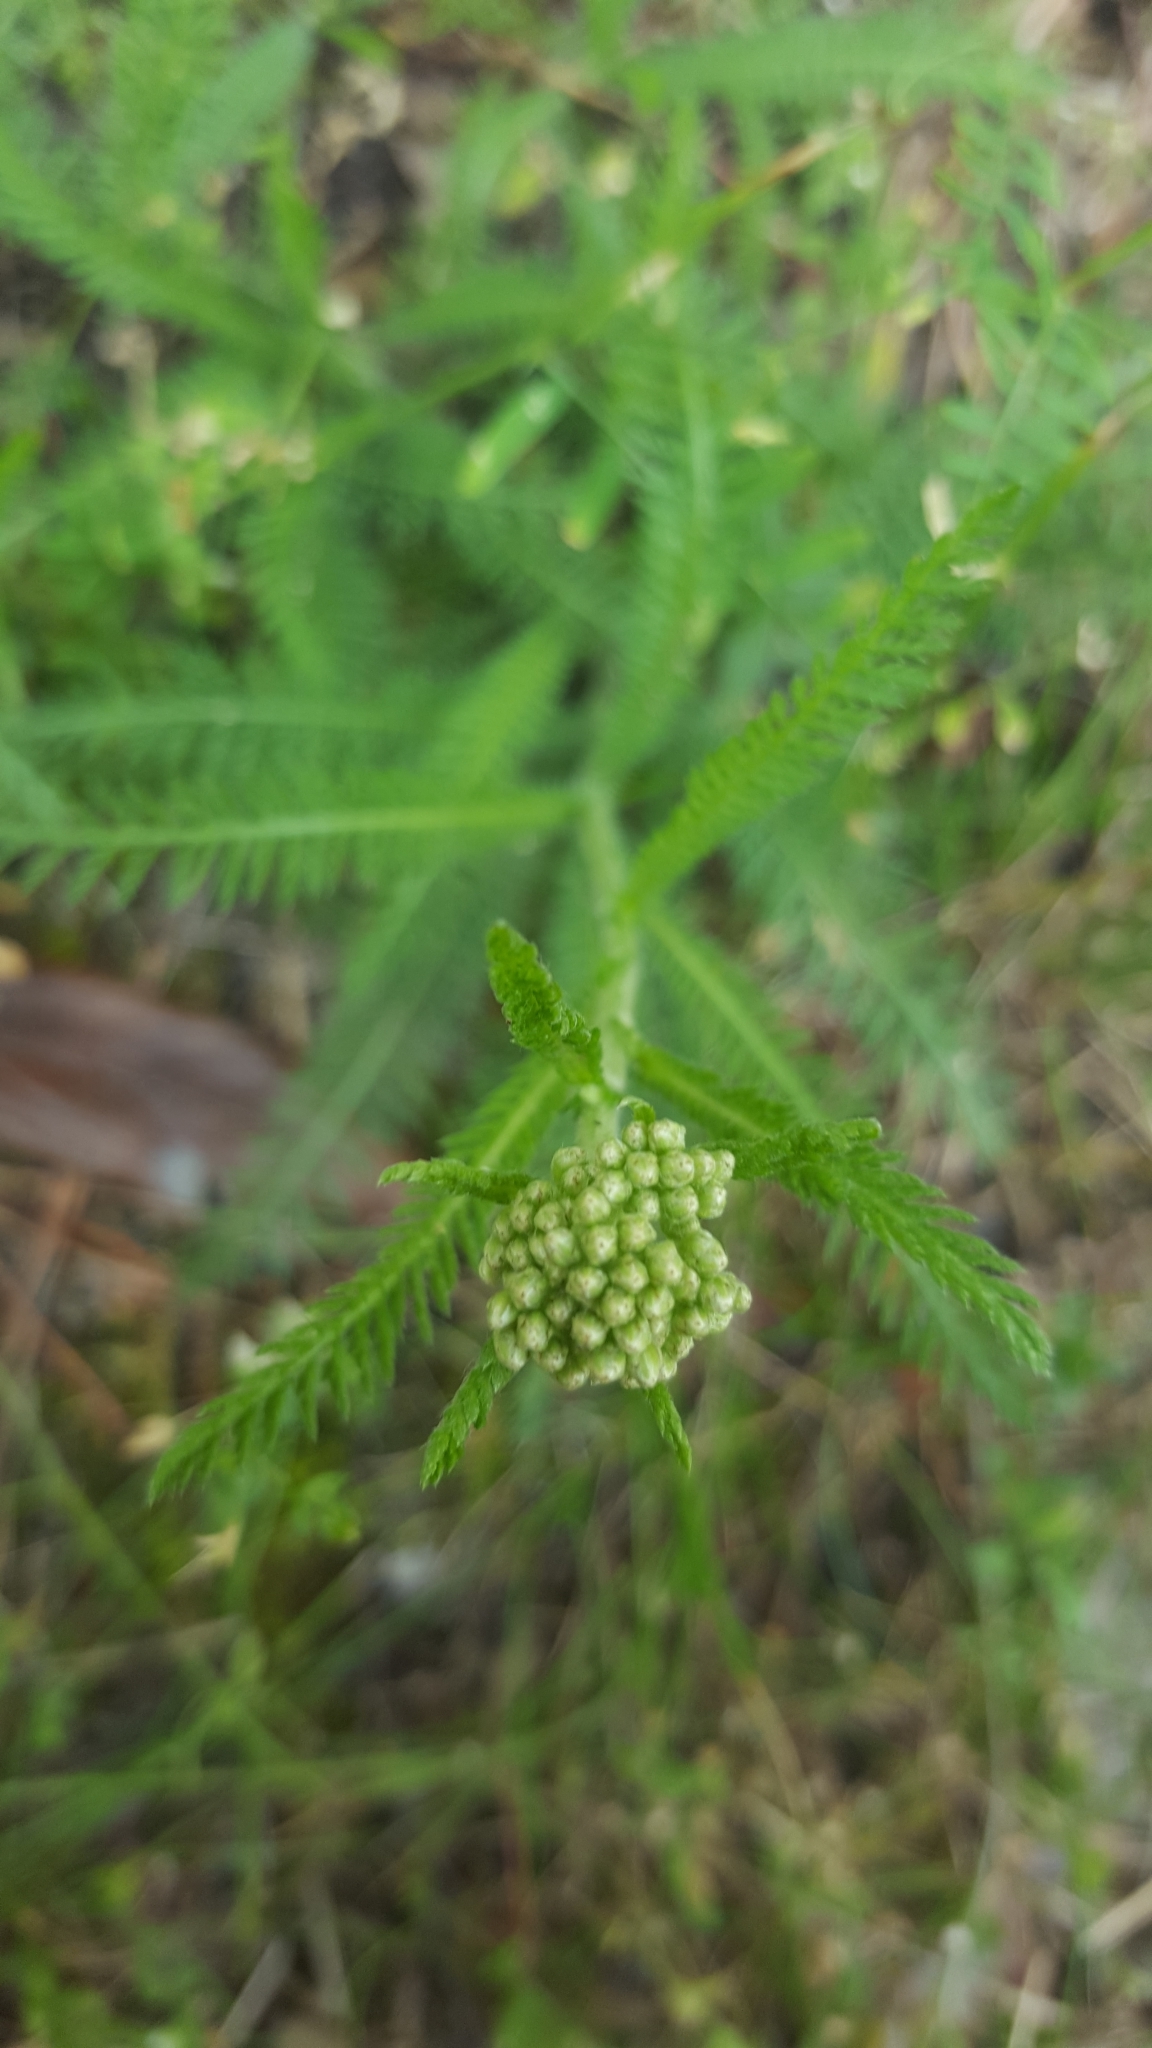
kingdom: Plantae
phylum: Tracheophyta
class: Magnoliopsida
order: Asterales
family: Asteraceae
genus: Achillea
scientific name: Achillea millefolium
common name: Yarrow
